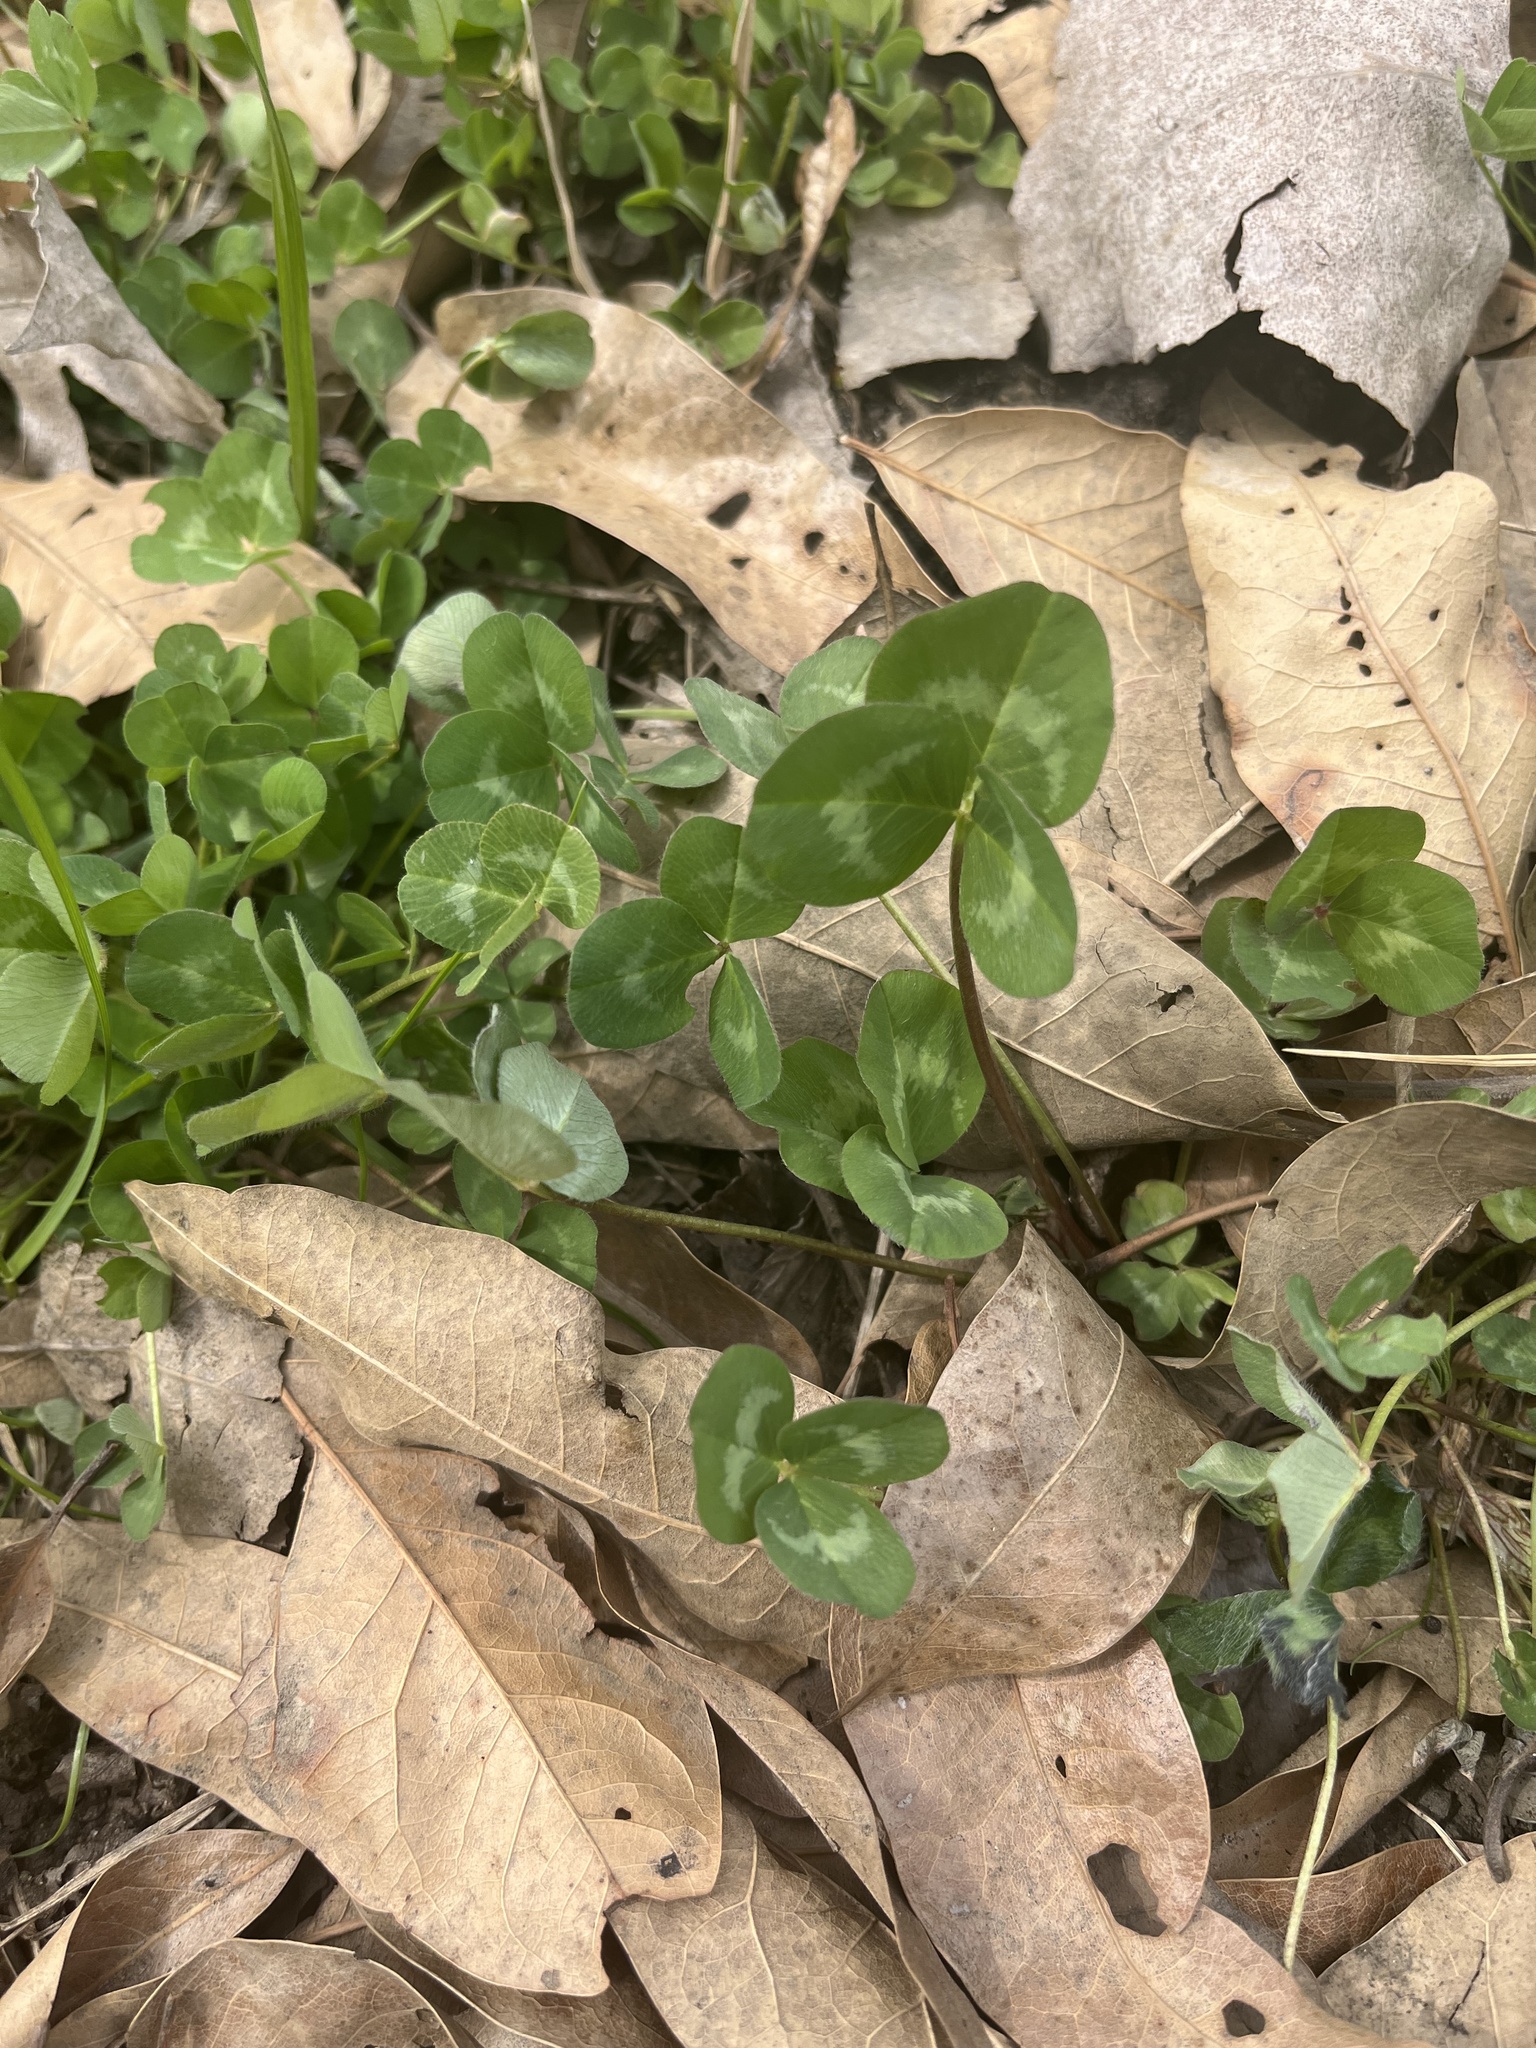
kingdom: Plantae
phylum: Tracheophyta
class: Magnoliopsida
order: Fabales
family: Fabaceae
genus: Trifolium
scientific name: Trifolium pratense
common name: Red clover
